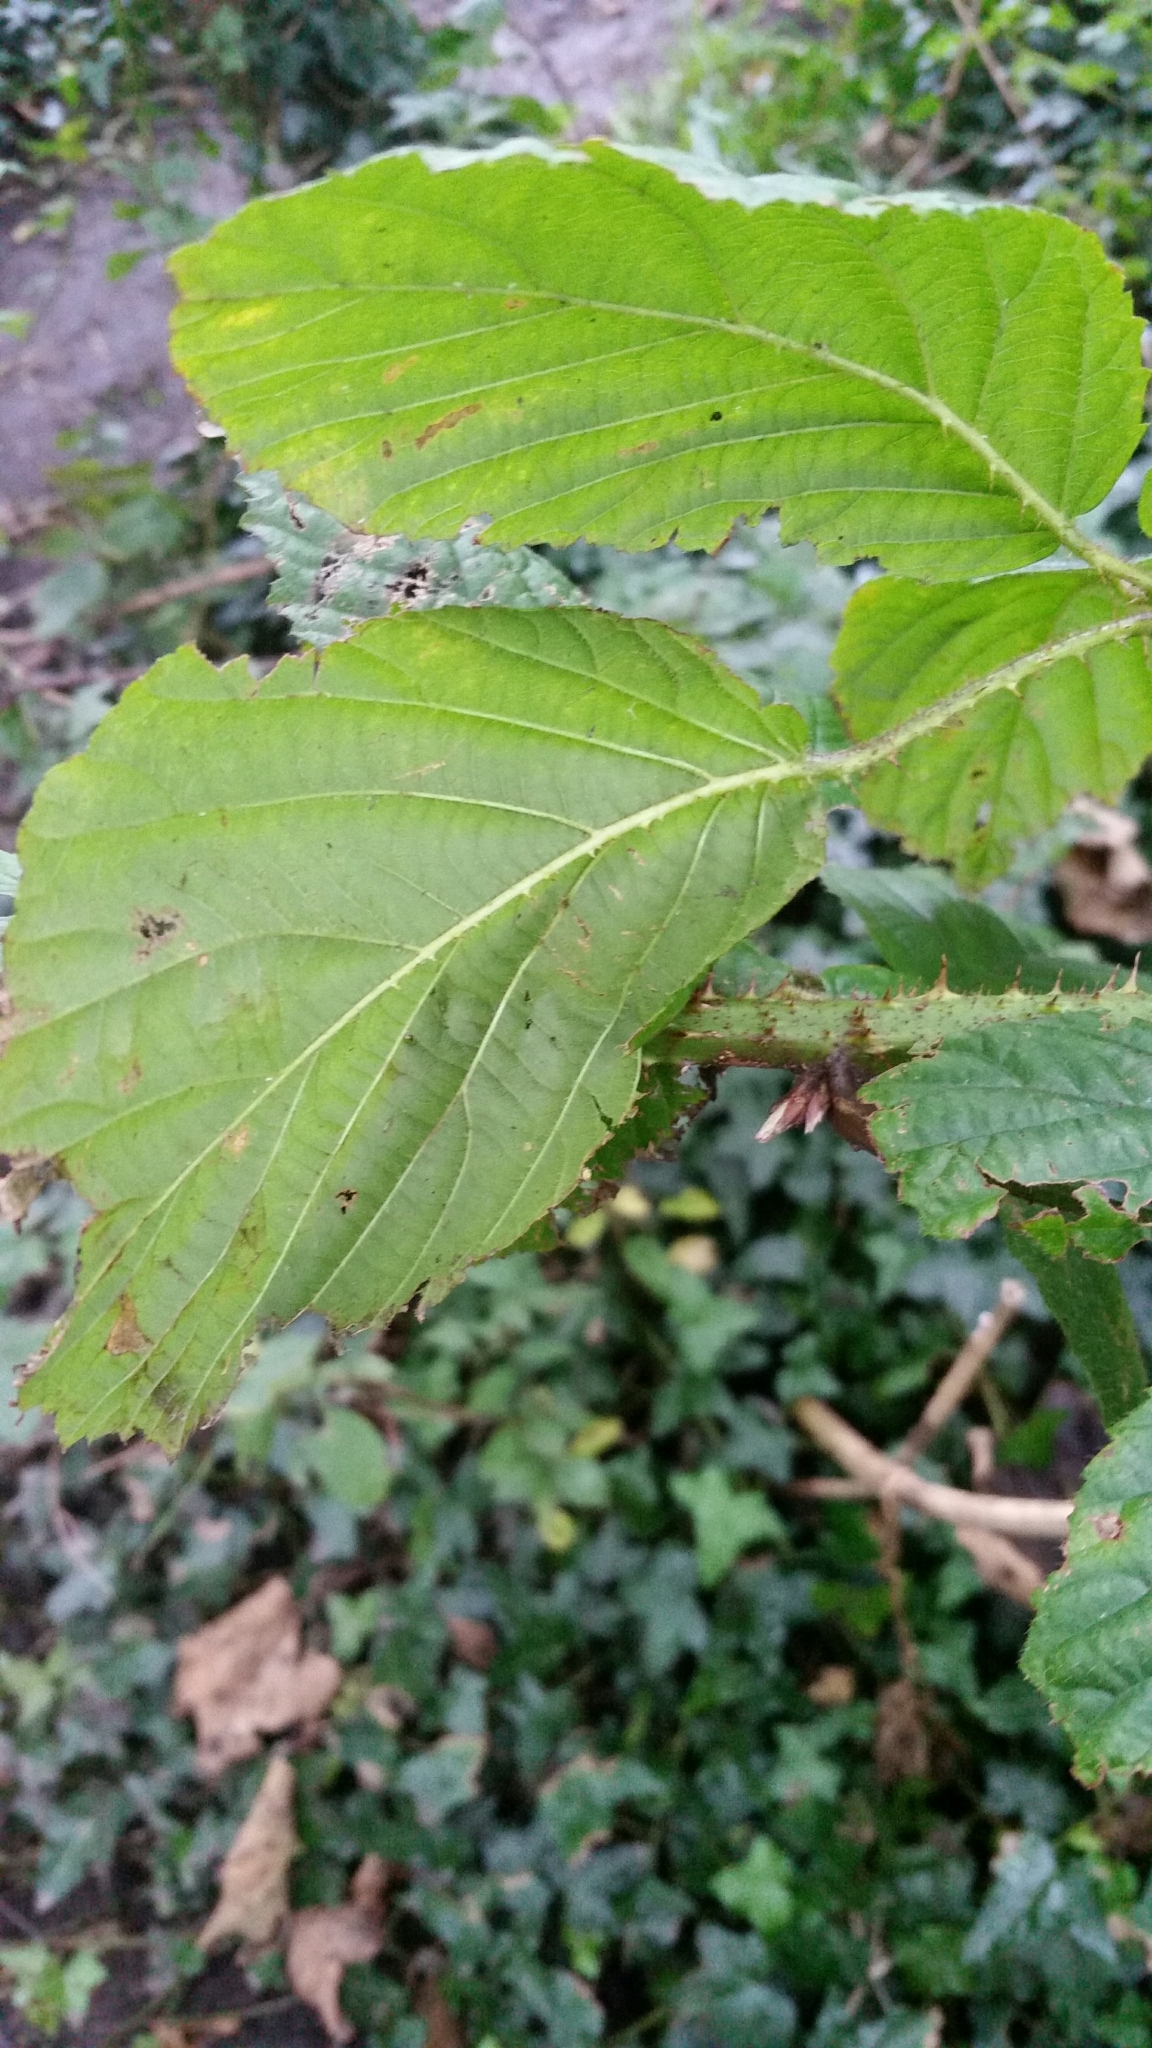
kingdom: Plantae
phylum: Tracheophyta
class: Magnoliopsida
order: Rosales
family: Rosaceae
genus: Rubus
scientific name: Rubus hylocharis
